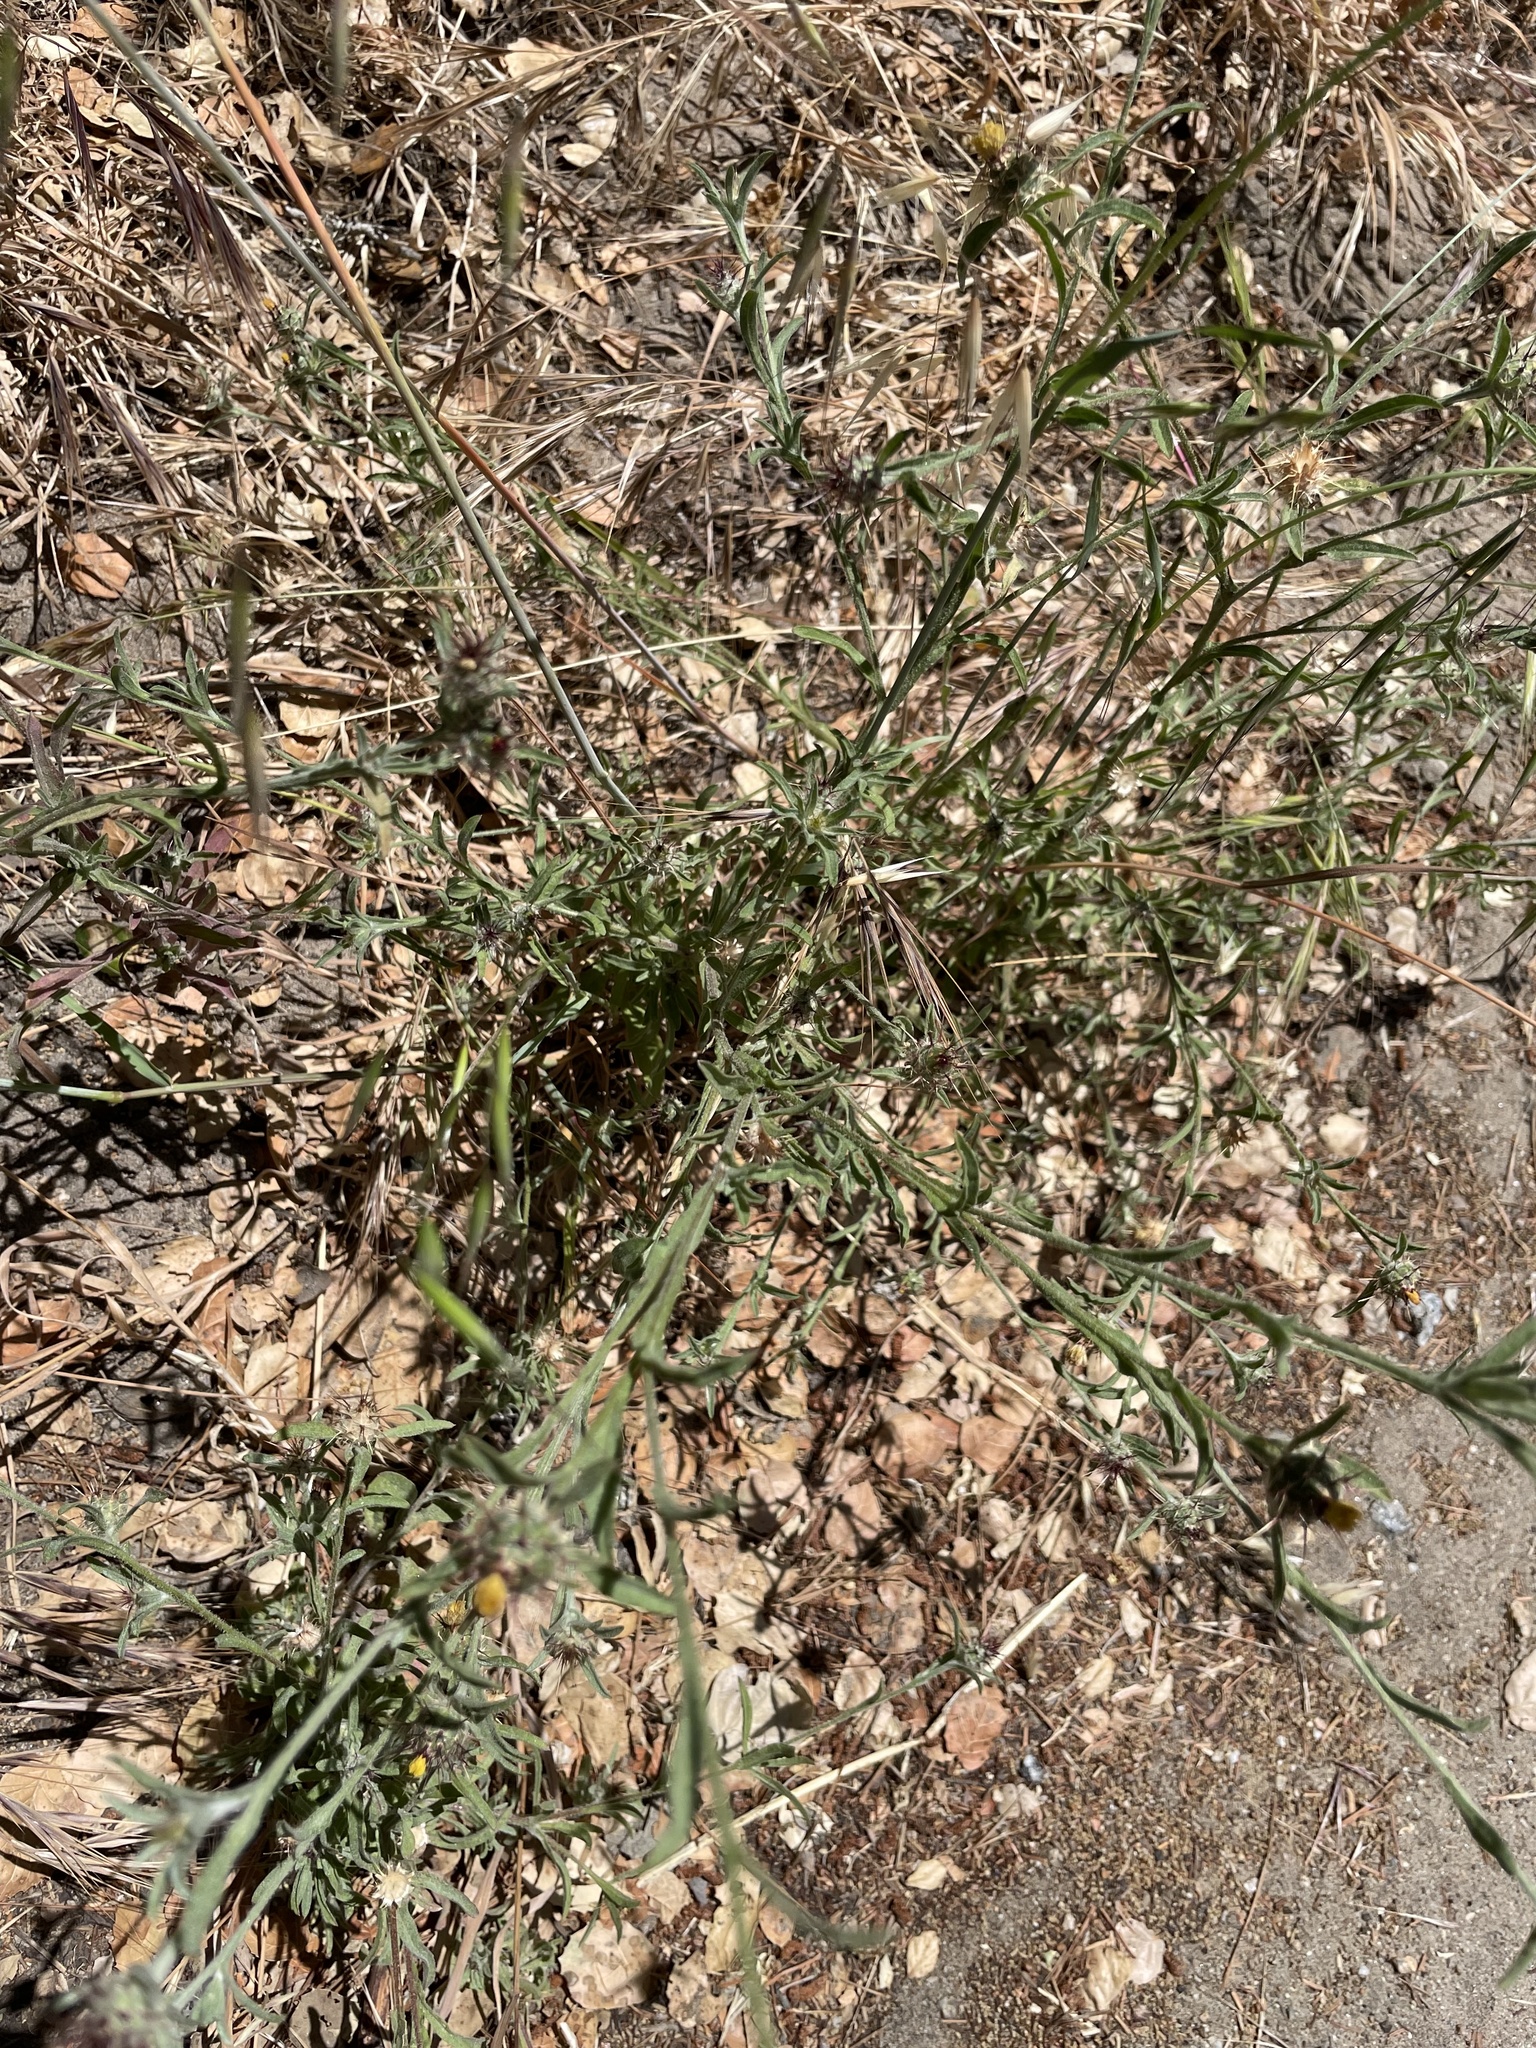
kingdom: Plantae
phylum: Tracheophyta
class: Magnoliopsida
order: Asterales
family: Asteraceae
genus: Centaurea
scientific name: Centaurea melitensis
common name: Maltese star-thistle
